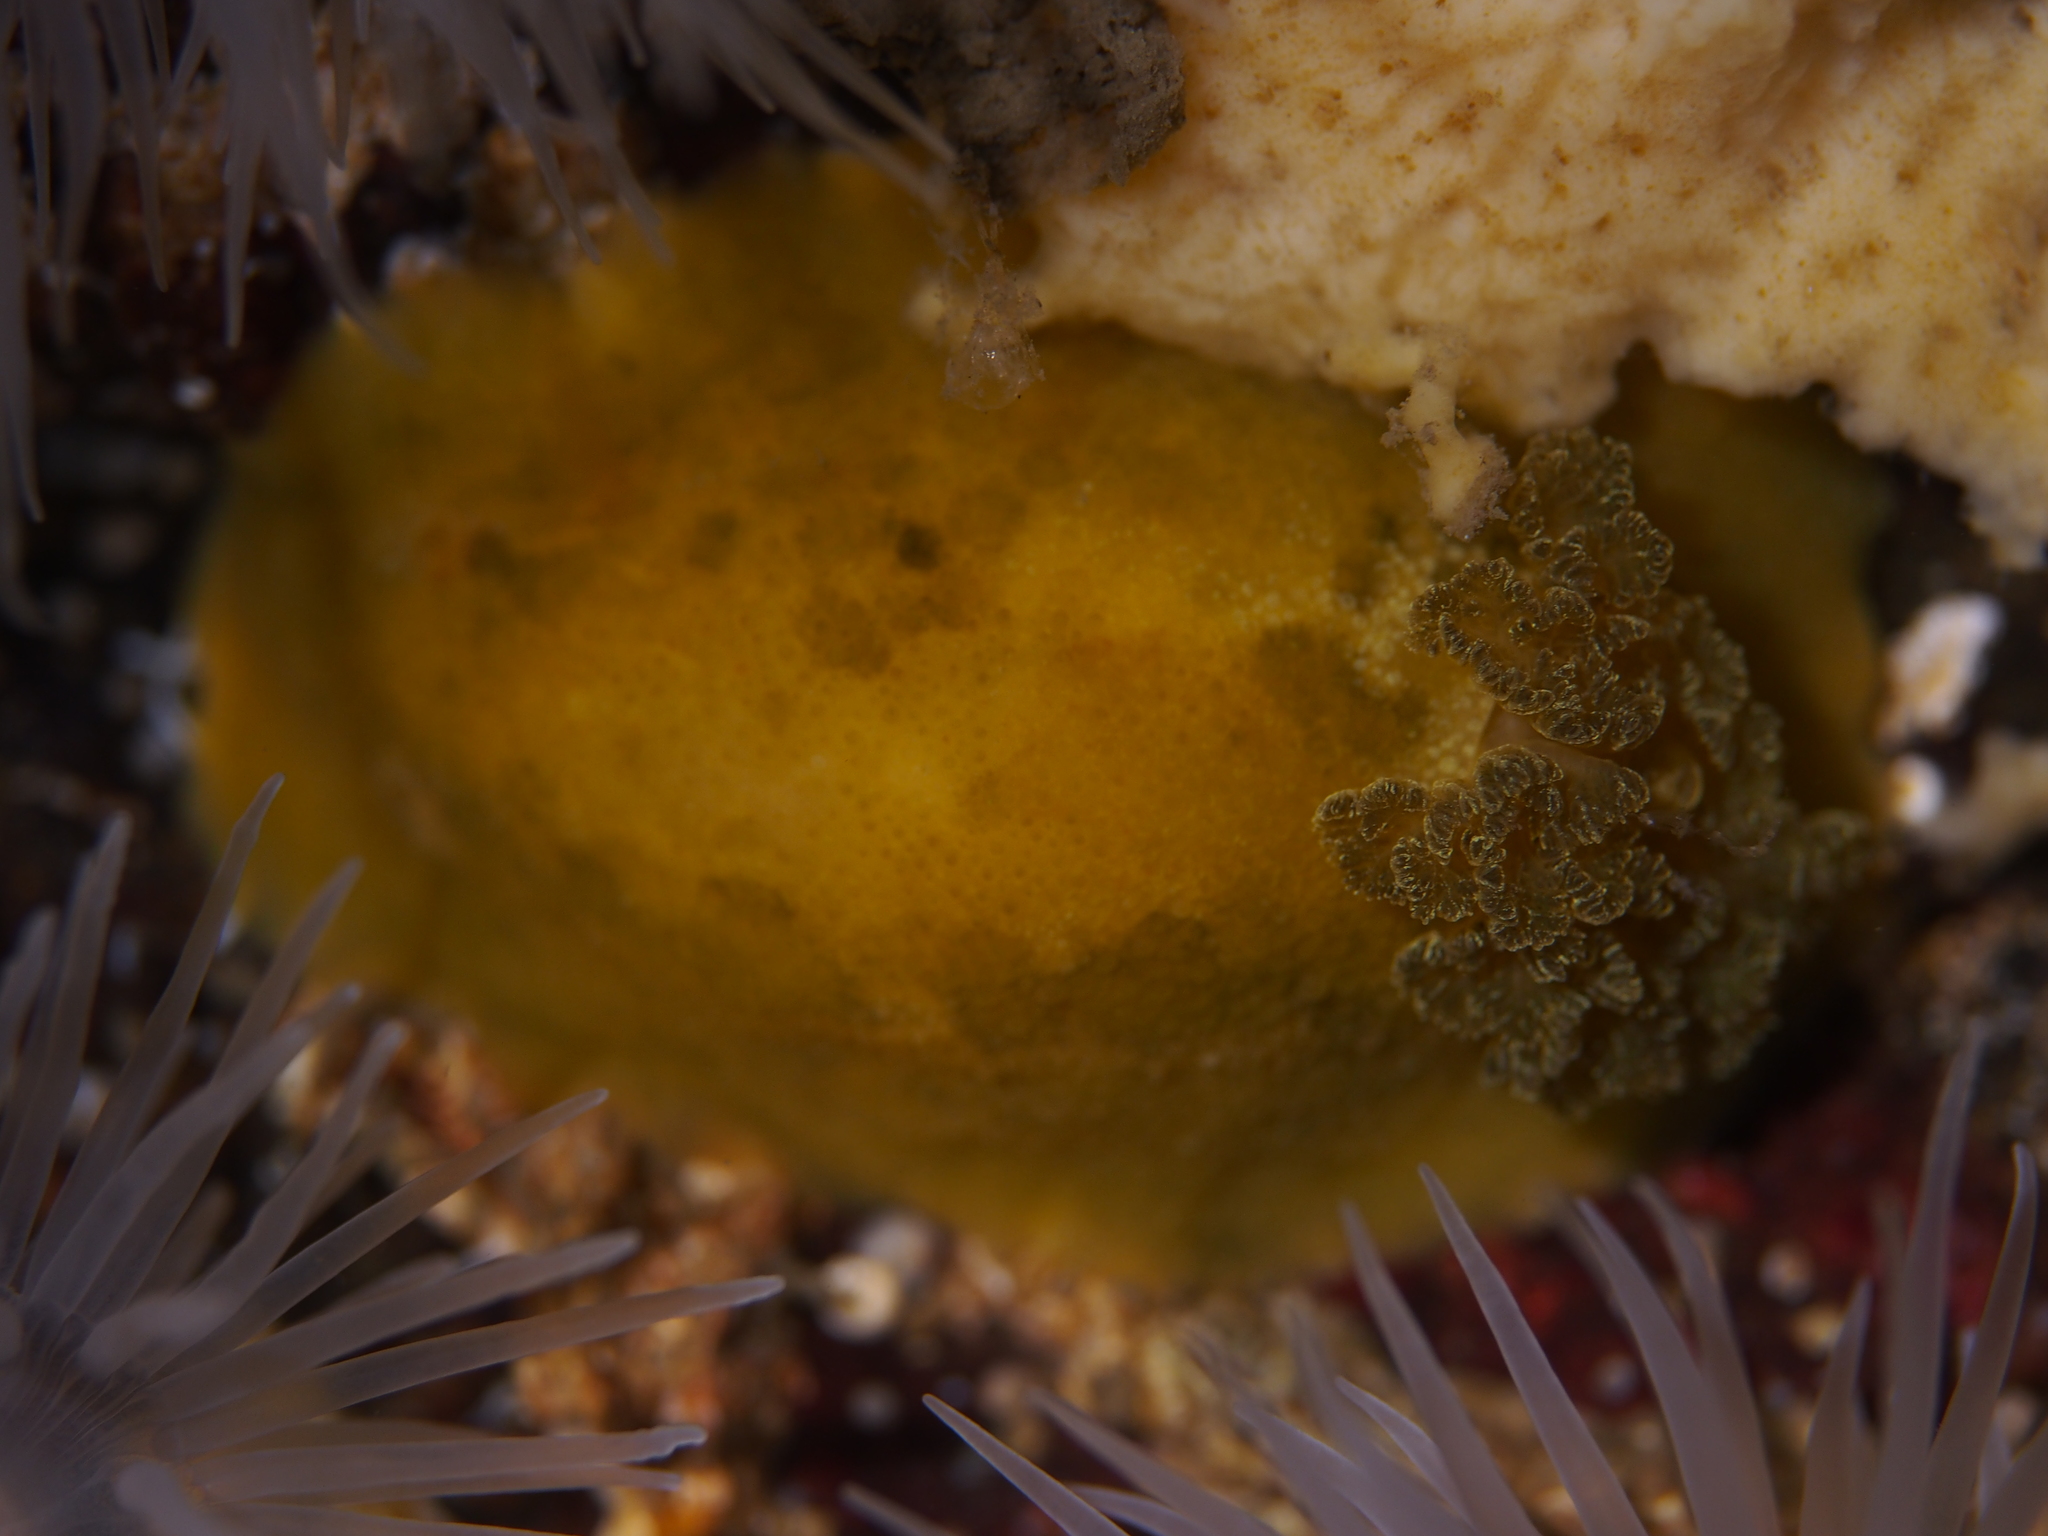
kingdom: Animalia
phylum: Mollusca
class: Gastropoda
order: Nudibranchia
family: Dorididae
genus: Doris
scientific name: Doris pseudoargus
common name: Sea lemon
